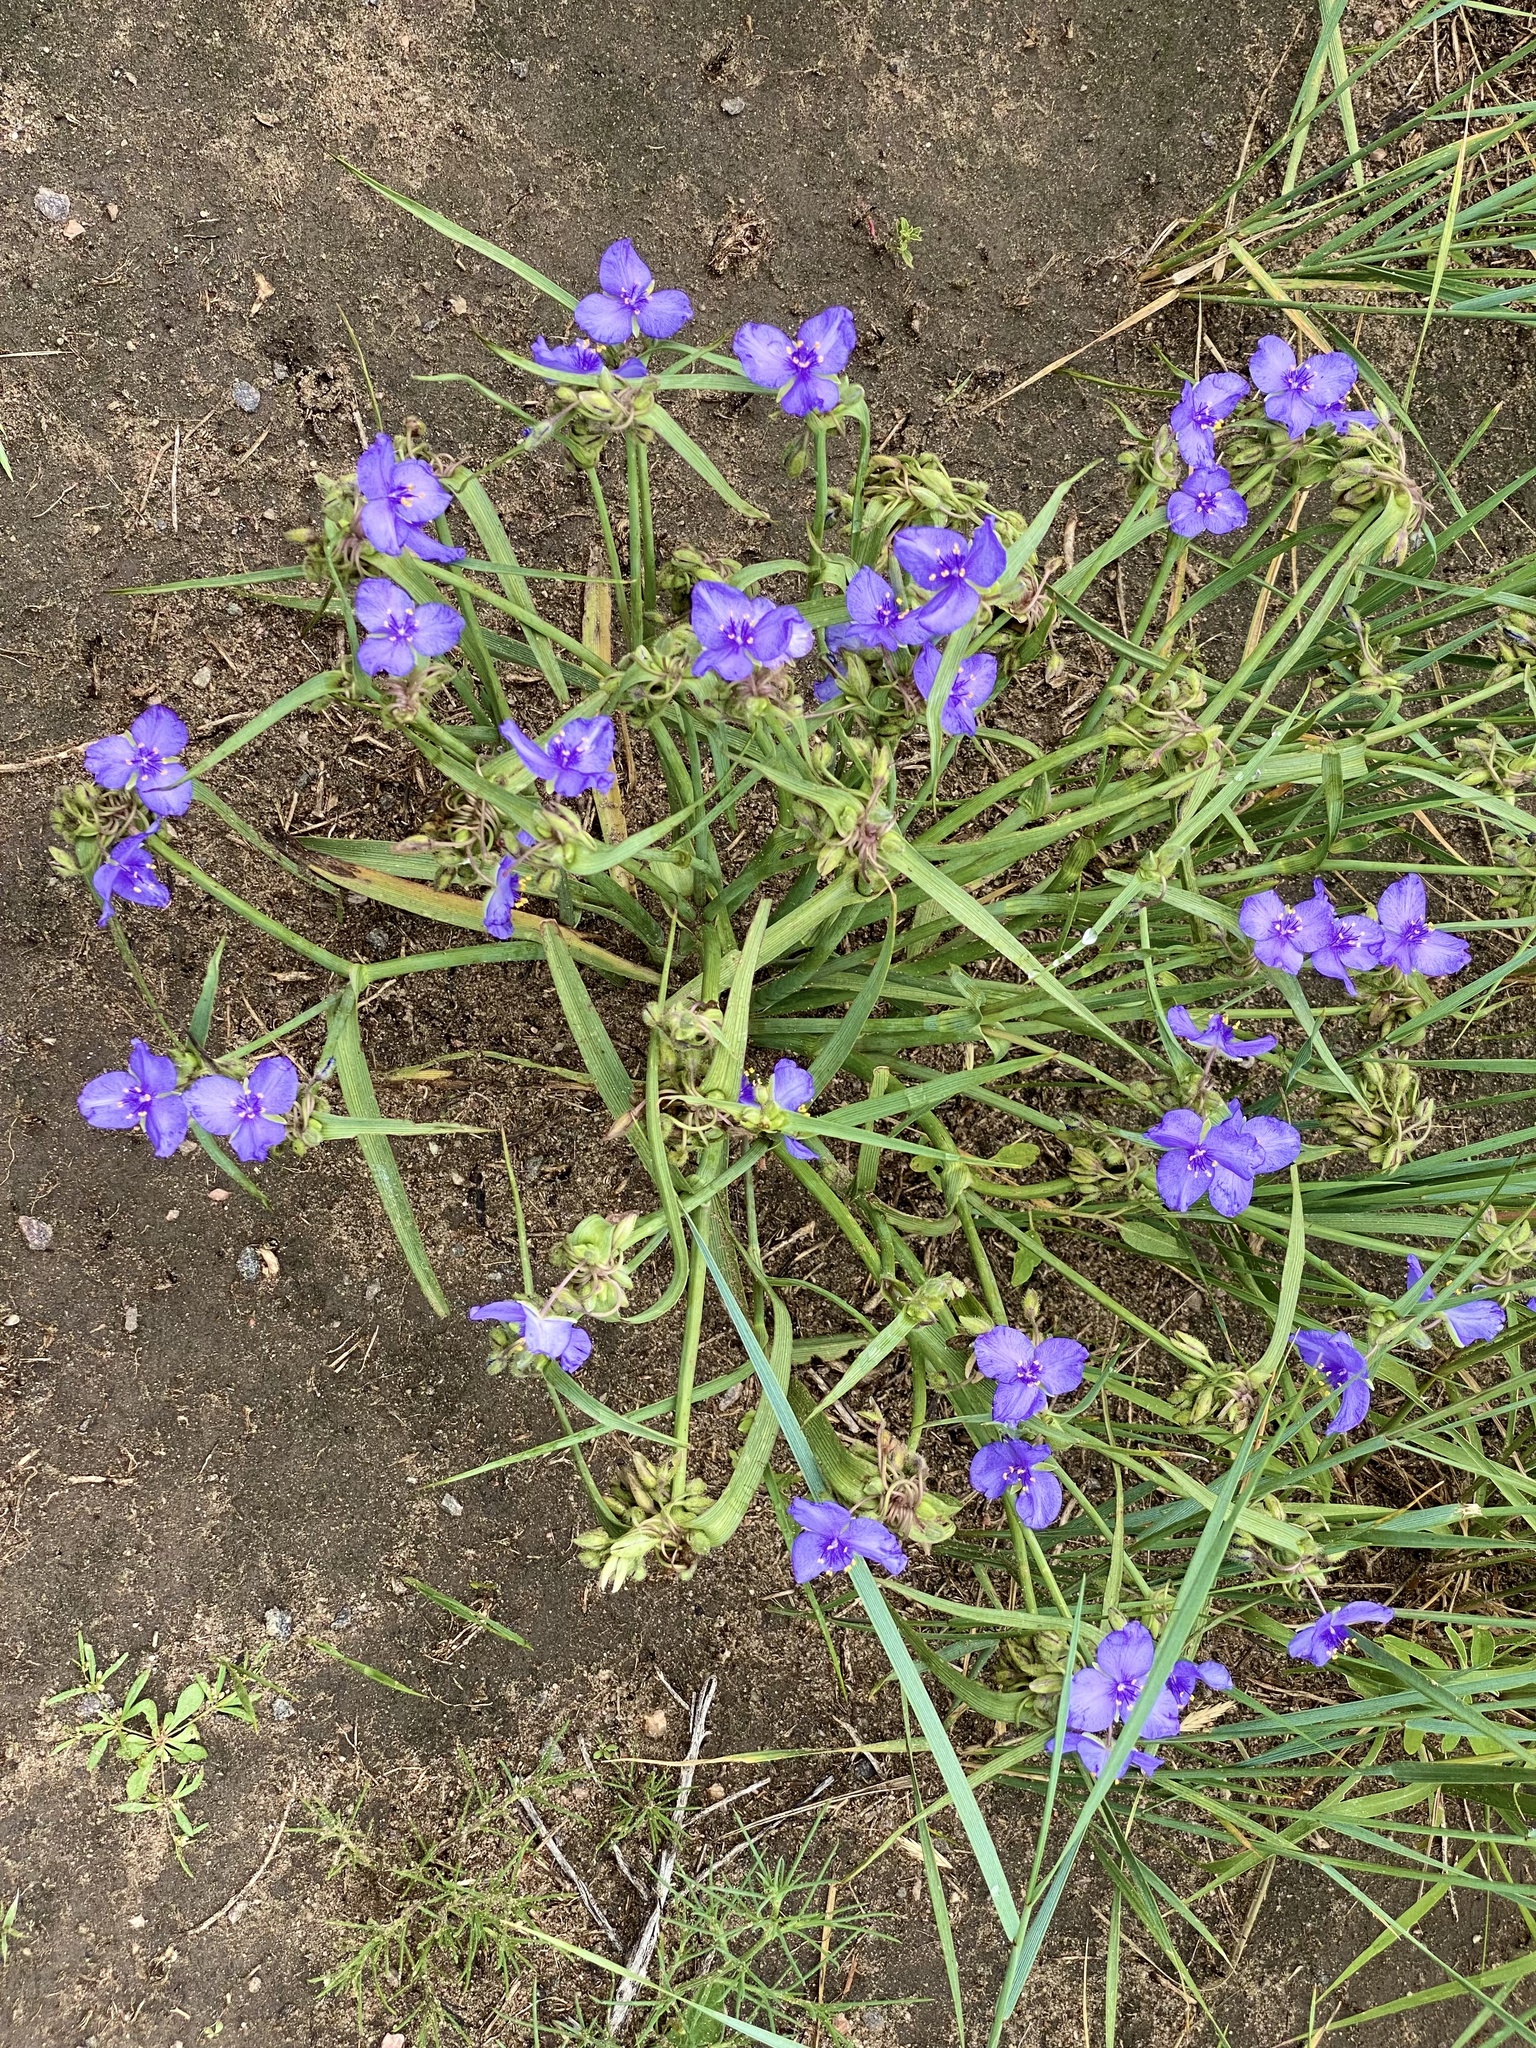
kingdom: Plantae
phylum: Tracheophyta
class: Liliopsida
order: Commelinales
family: Commelinaceae
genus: Tradescantia
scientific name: Tradescantia occidentalis
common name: Prairie spiderwort
